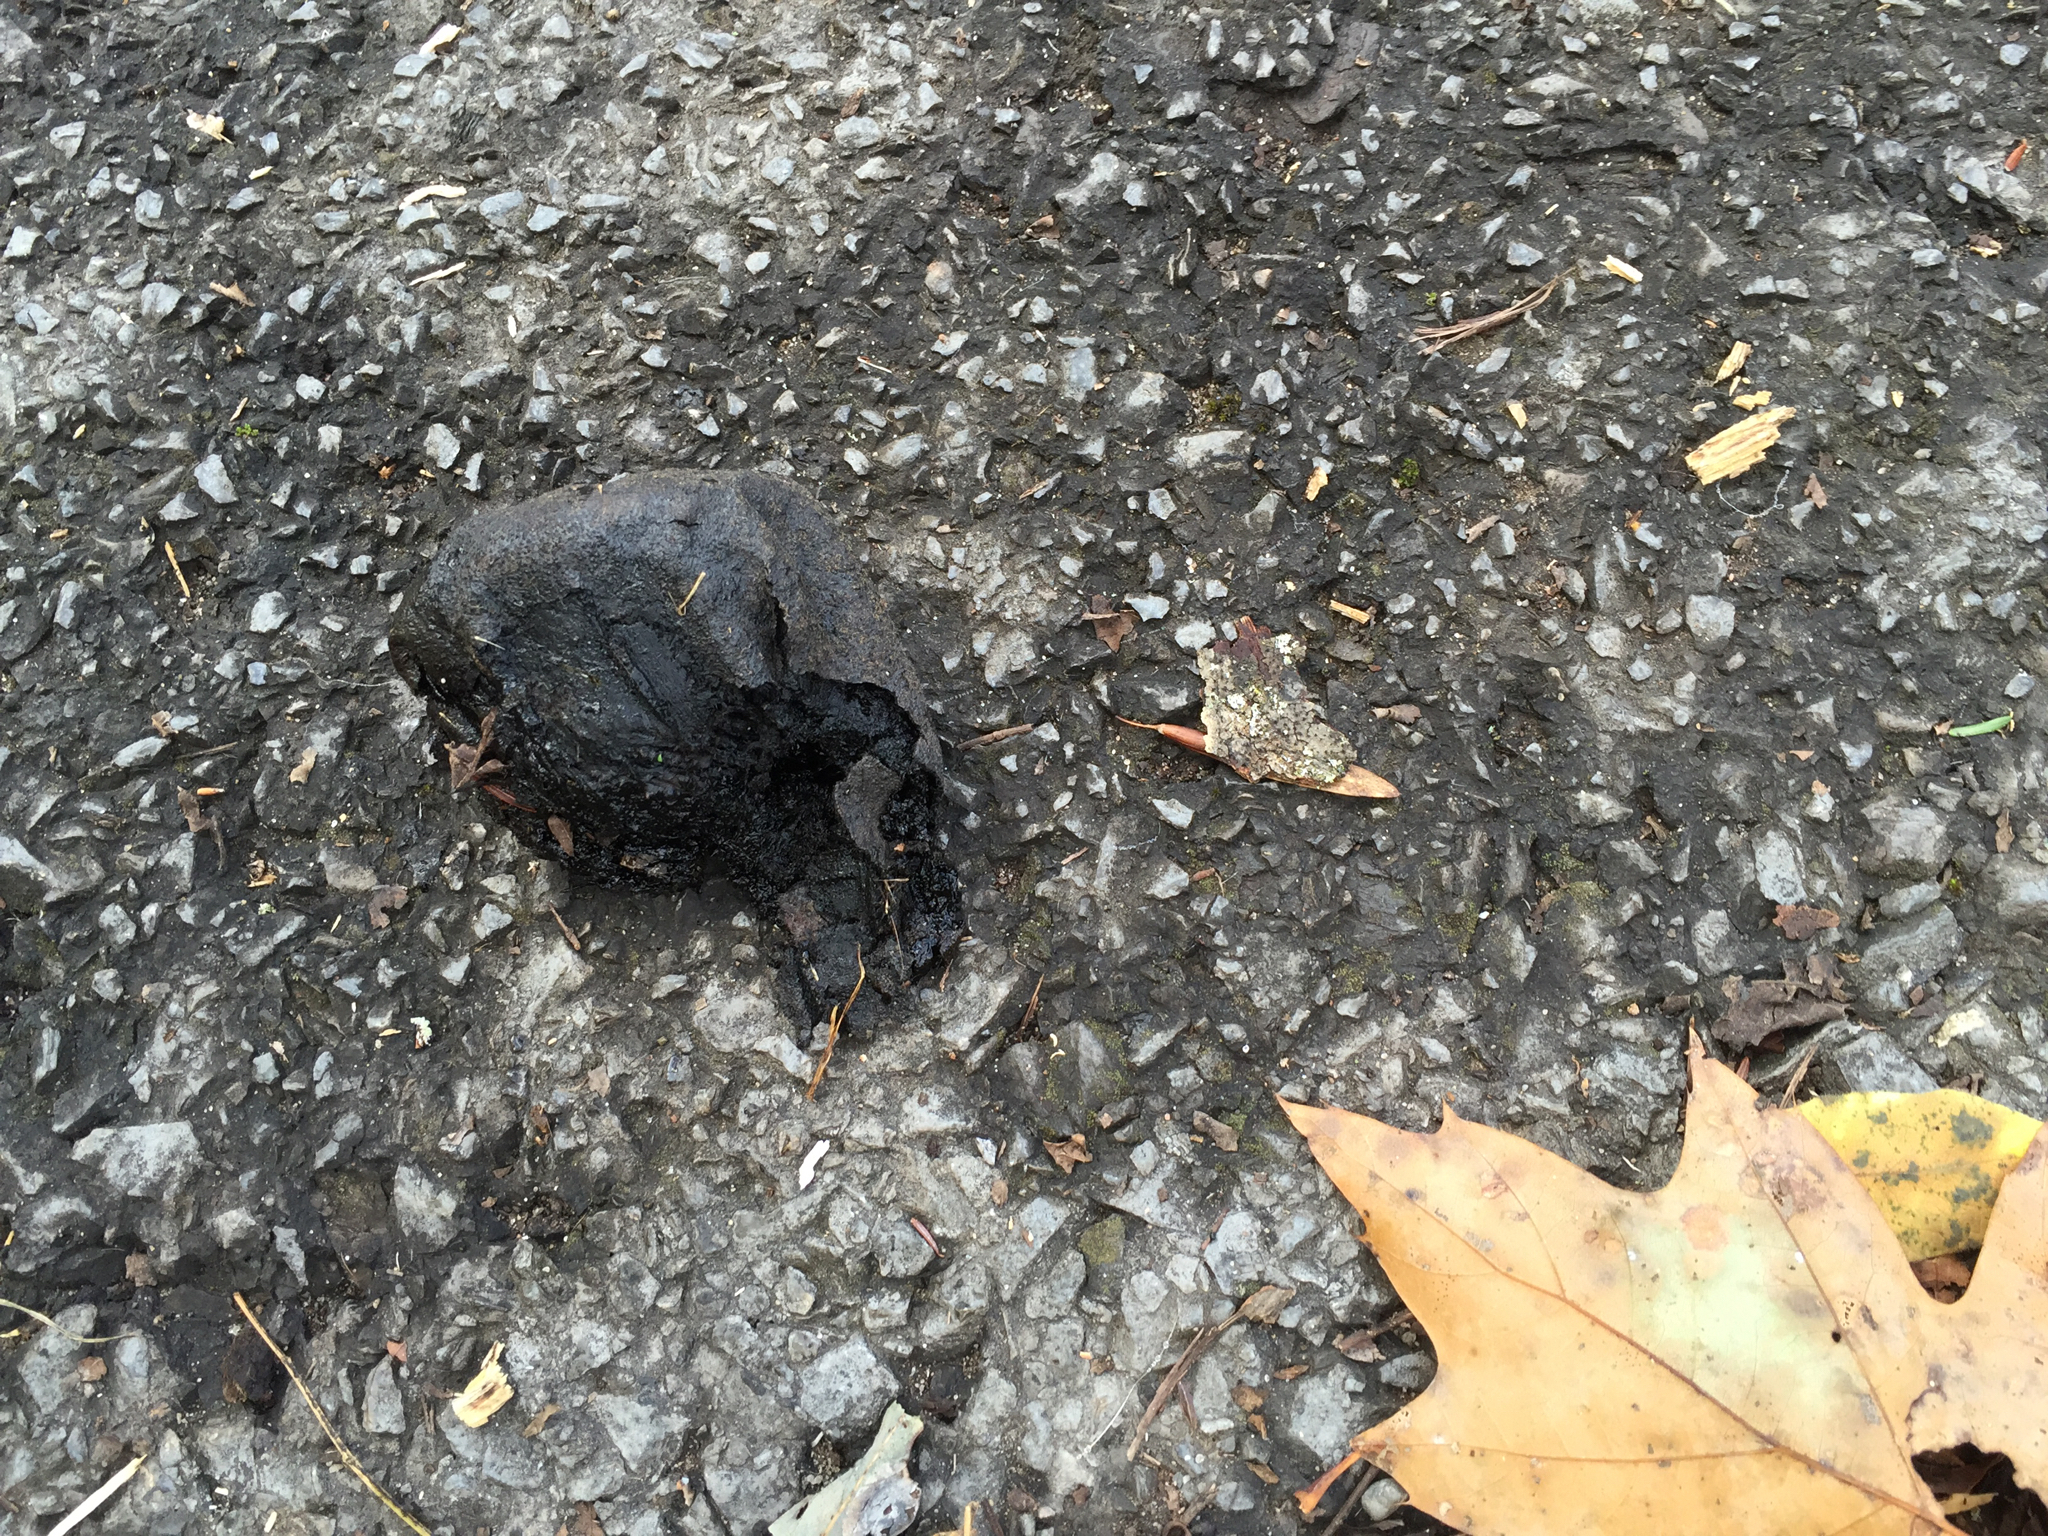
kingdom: Plantae
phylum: Tracheophyta
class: Magnoliopsida
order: Fagales
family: Juglandaceae
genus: Juglans
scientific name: Juglans nigra
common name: Black walnut
